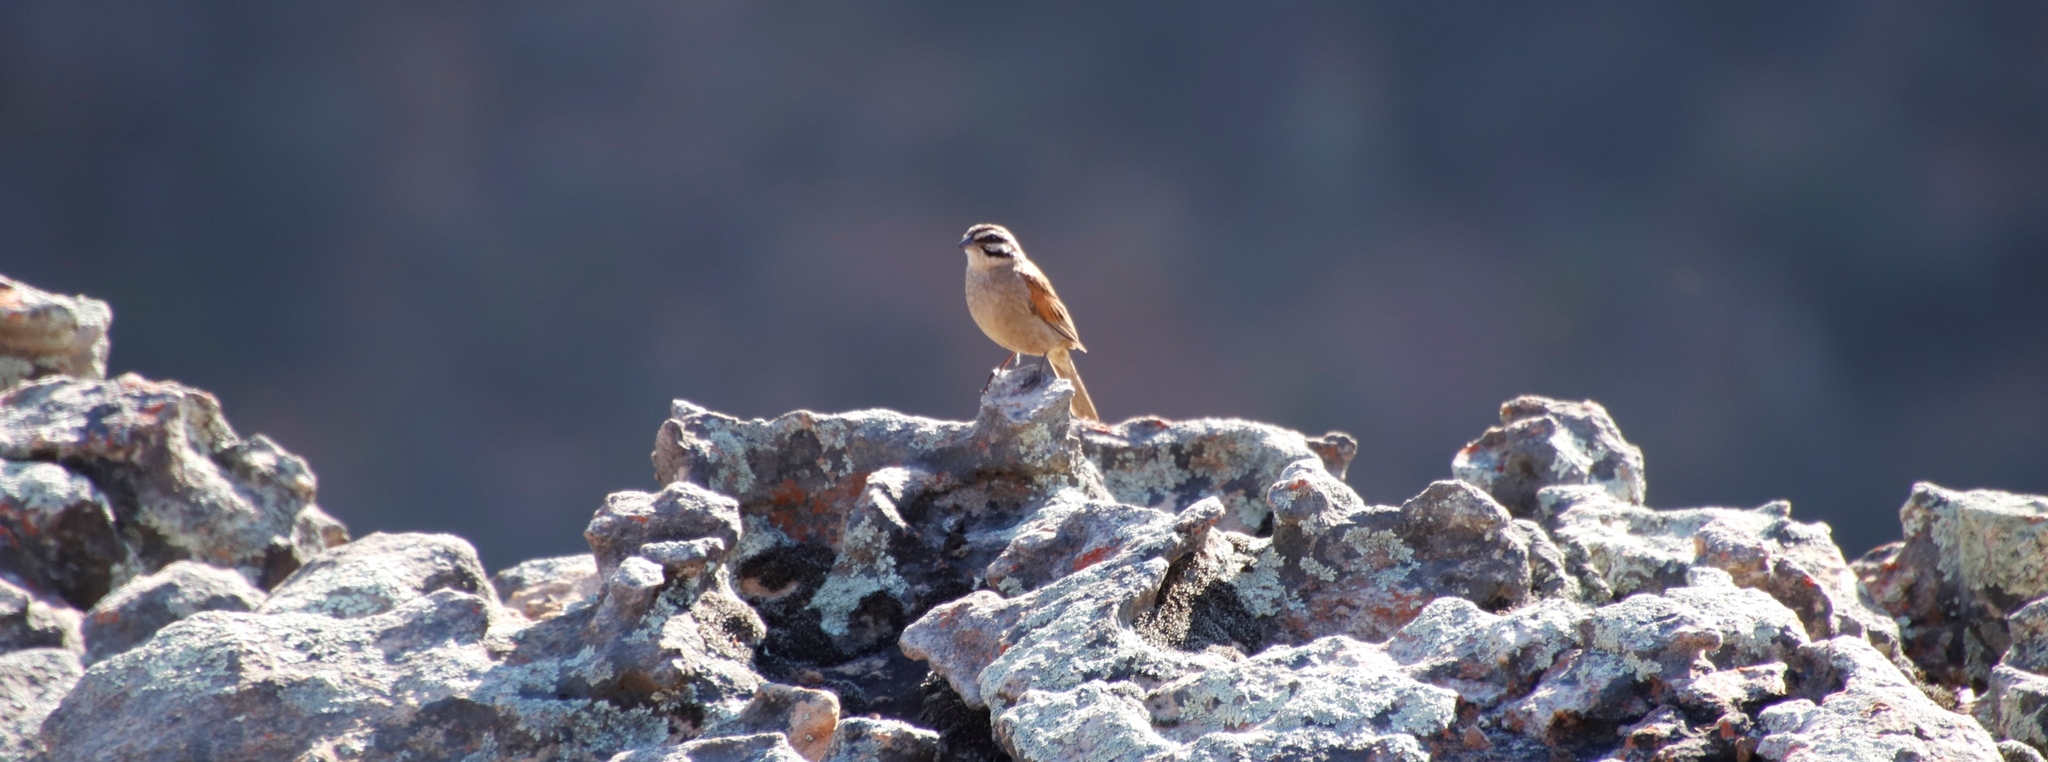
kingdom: Animalia
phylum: Chordata
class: Aves
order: Passeriformes
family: Emberizidae
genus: Emberiza
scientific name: Emberiza capensis
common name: Cape bunting
